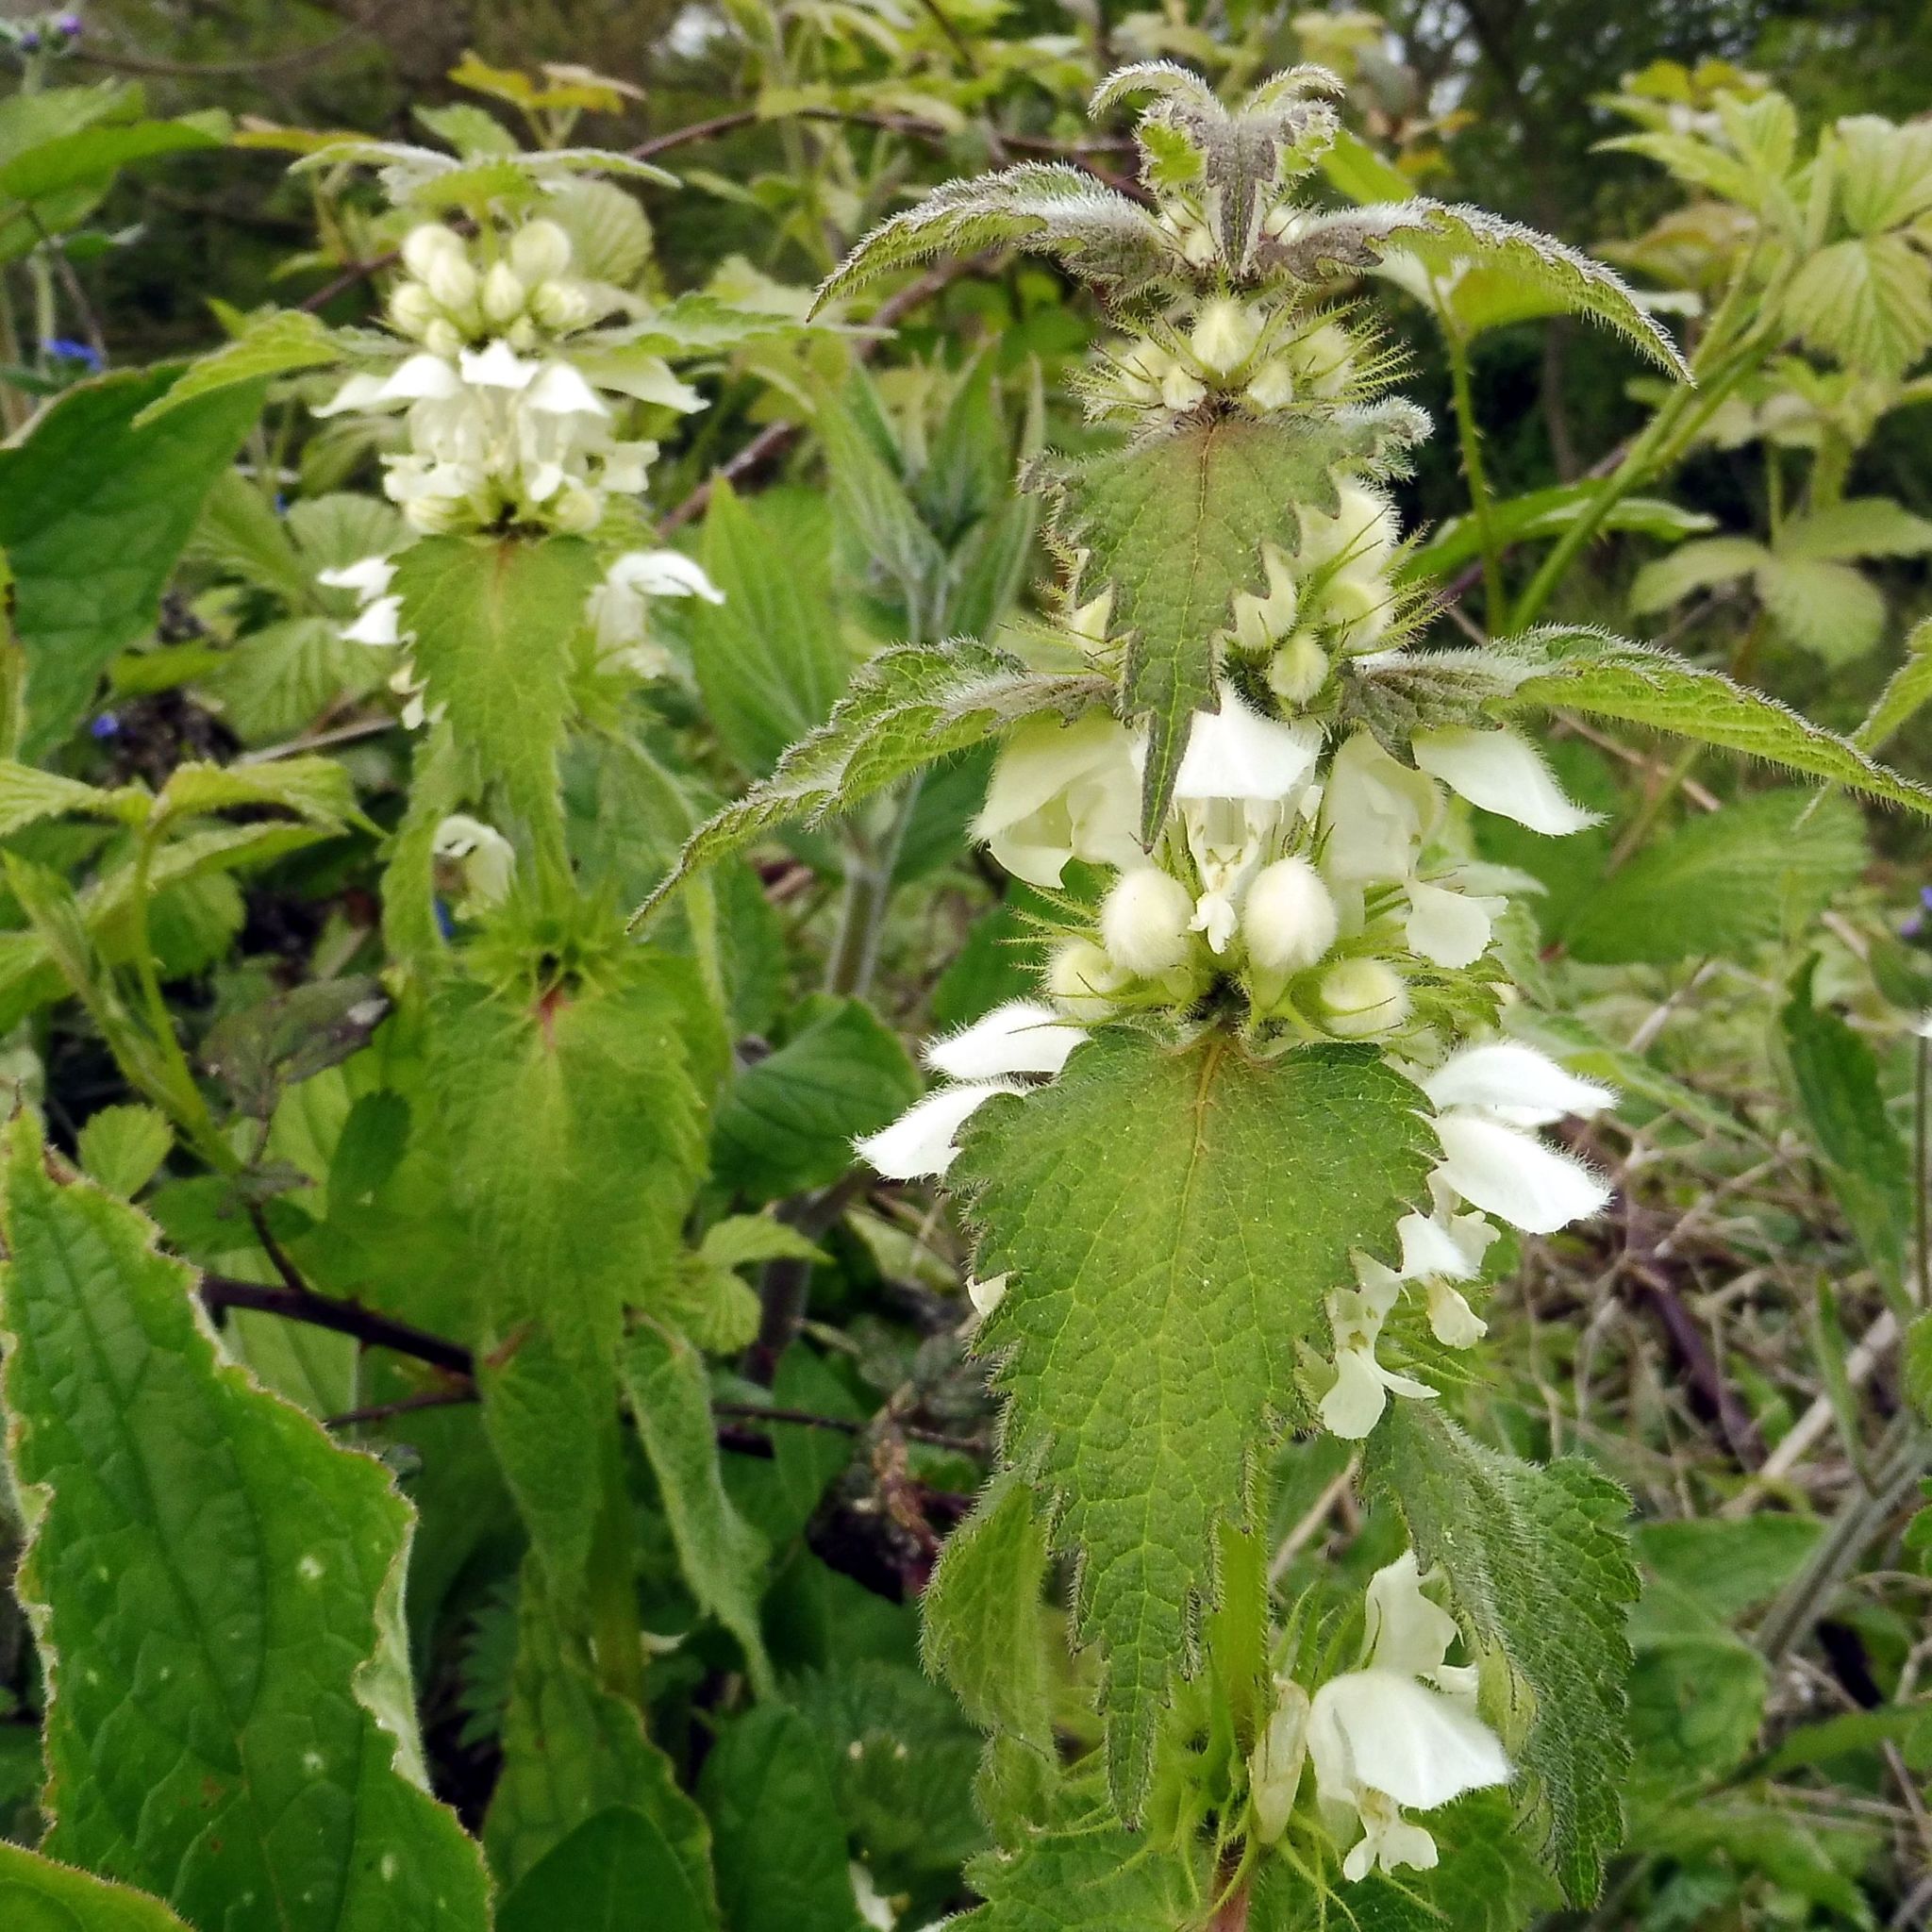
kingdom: Plantae
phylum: Tracheophyta
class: Magnoliopsida
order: Lamiales
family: Lamiaceae
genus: Lamium
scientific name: Lamium album
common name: White dead-nettle
